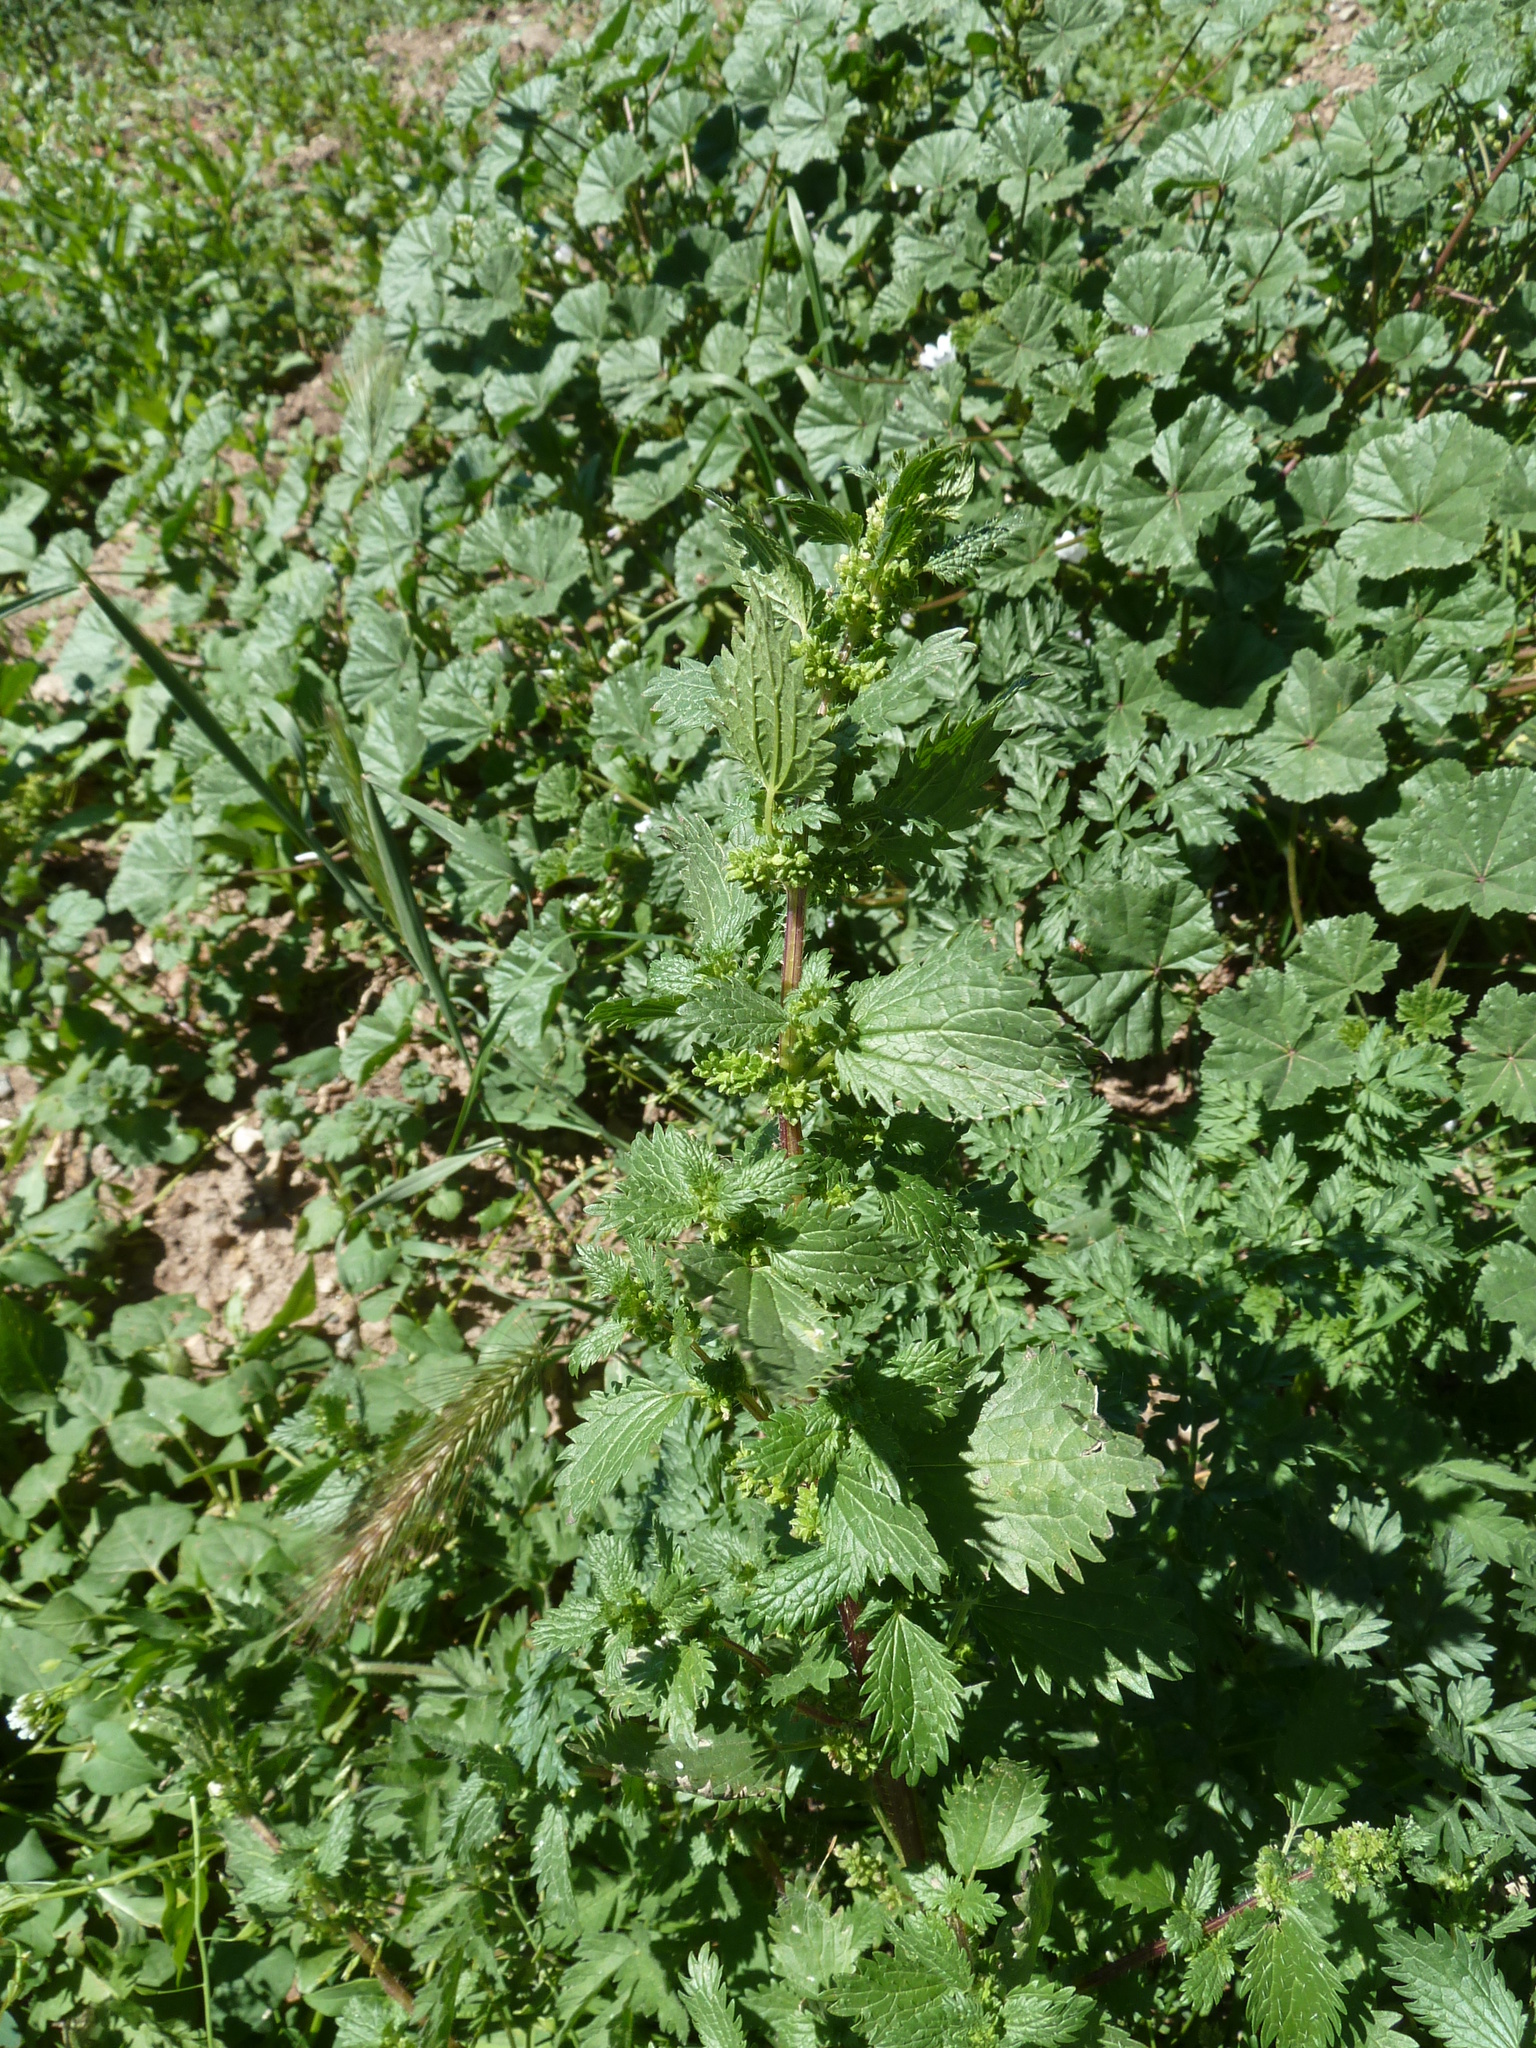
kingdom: Plantae
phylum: Tracheophyta
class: Magnoliopsida
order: Rosales
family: Urticaceae
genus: Urtica
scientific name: Urtica urens
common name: Dwarf nettle
